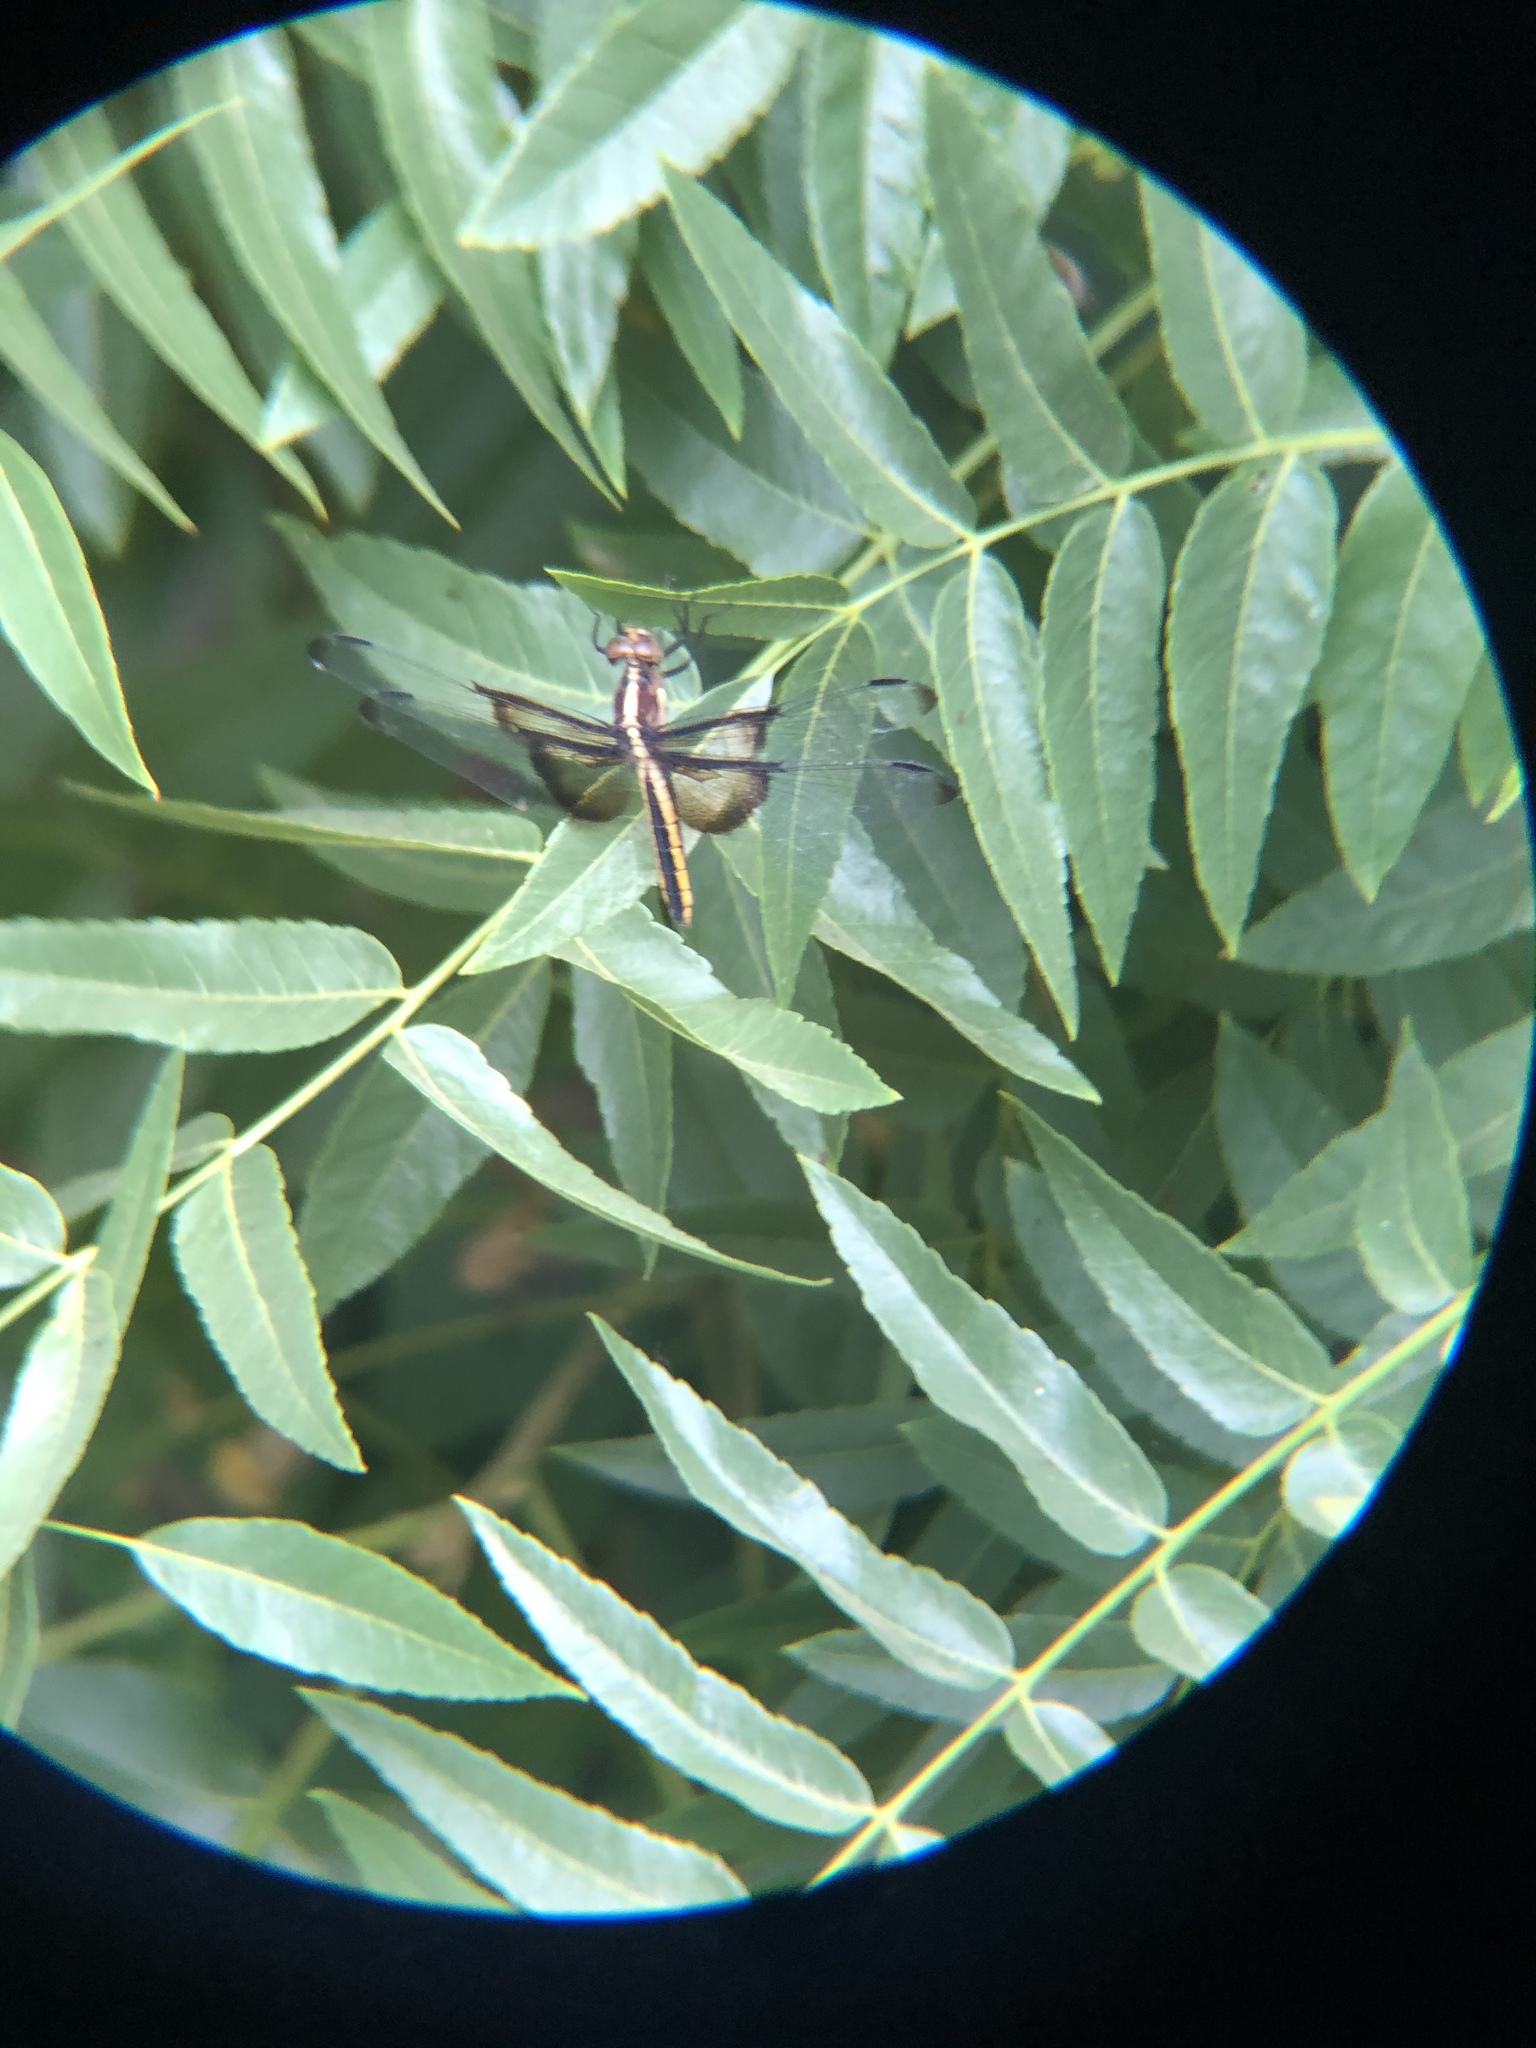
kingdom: Animalia
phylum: Arthropoda
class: Insecta
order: Odonata
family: Libellulidae
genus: Libellula
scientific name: Libellula luctuosa
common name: Widow skimmer
